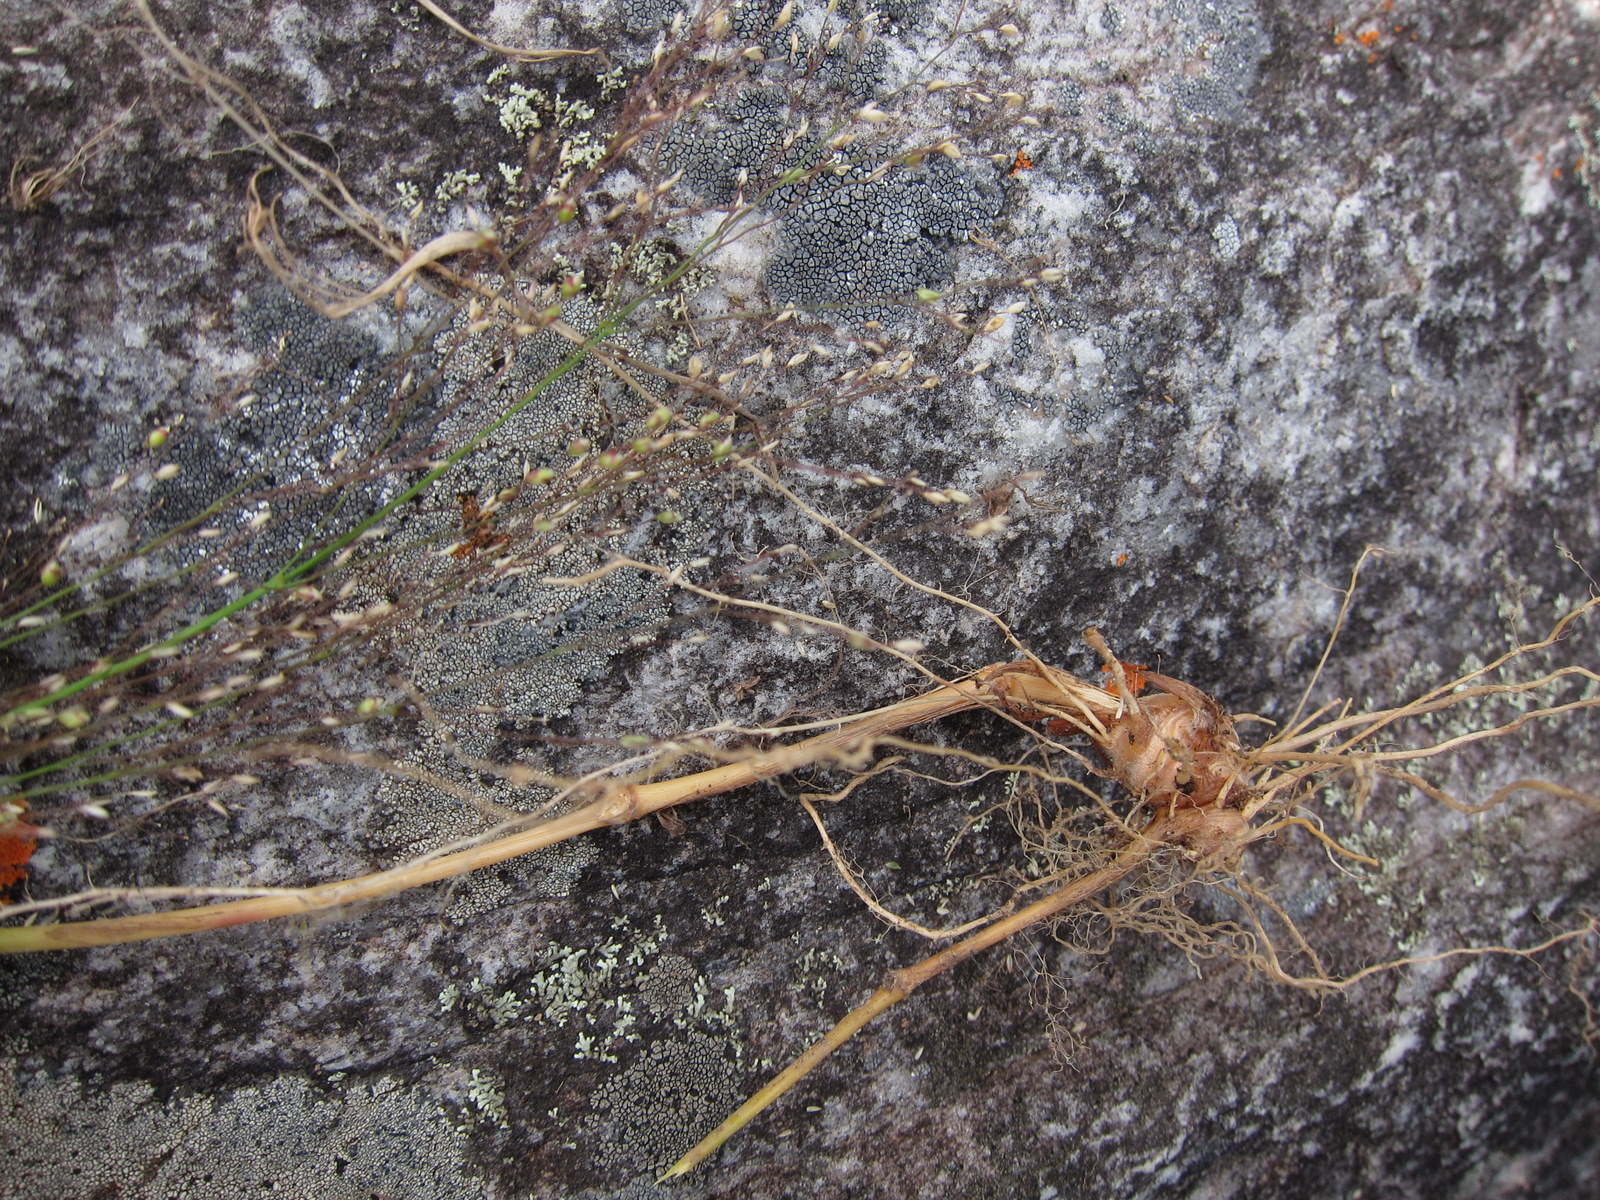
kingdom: Plantae
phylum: Tracheophyta
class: Liliopsida
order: Poales
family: Poaceae
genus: Panicum
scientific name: Panicum ibitense
